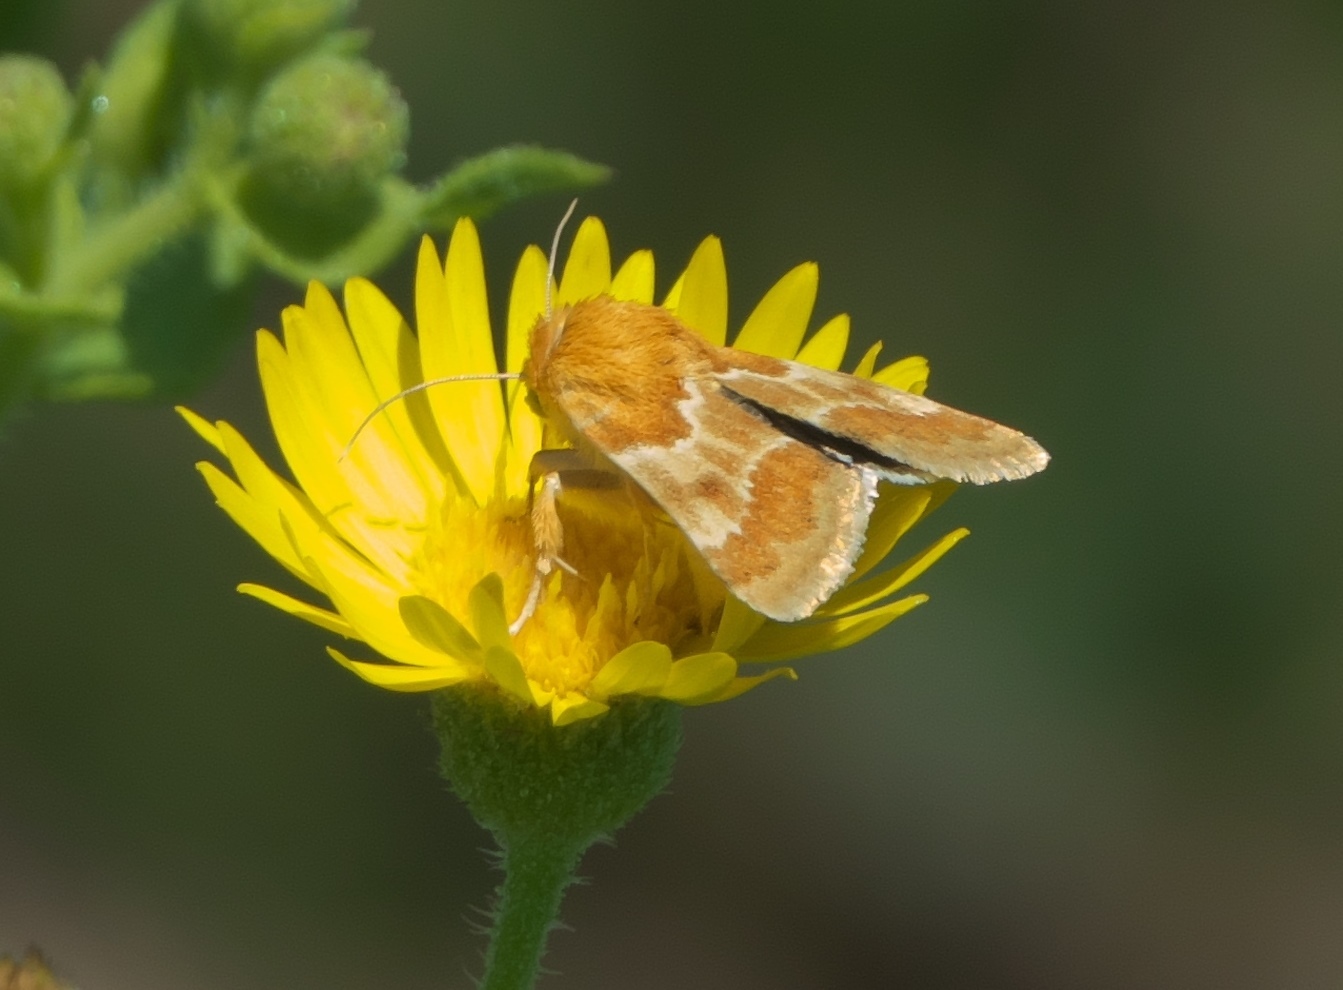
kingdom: Animalia
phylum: Arthropoda
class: Insecta
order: Lepidoptera
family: Noctuidae
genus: Schinia
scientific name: Schinia siren
